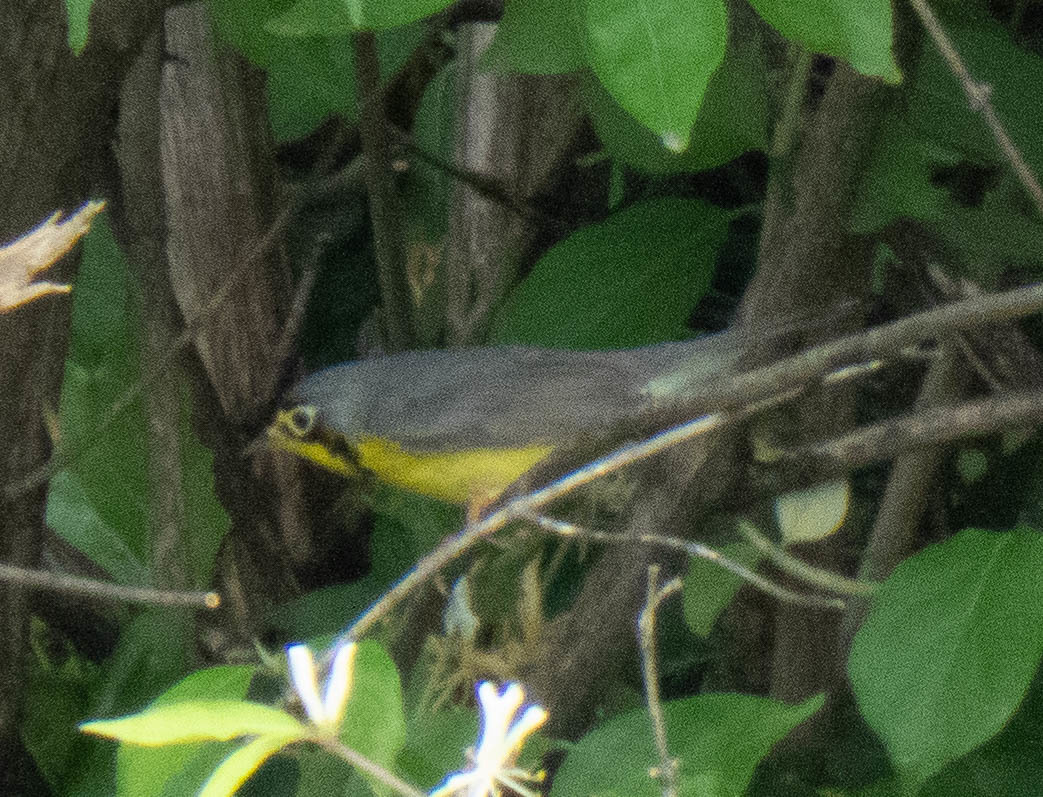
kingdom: Animalia
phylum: Chordata
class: Aves
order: Passeriformes
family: Parulidae
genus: Cardellina
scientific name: Cardellina canadensis
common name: Canada warbler
